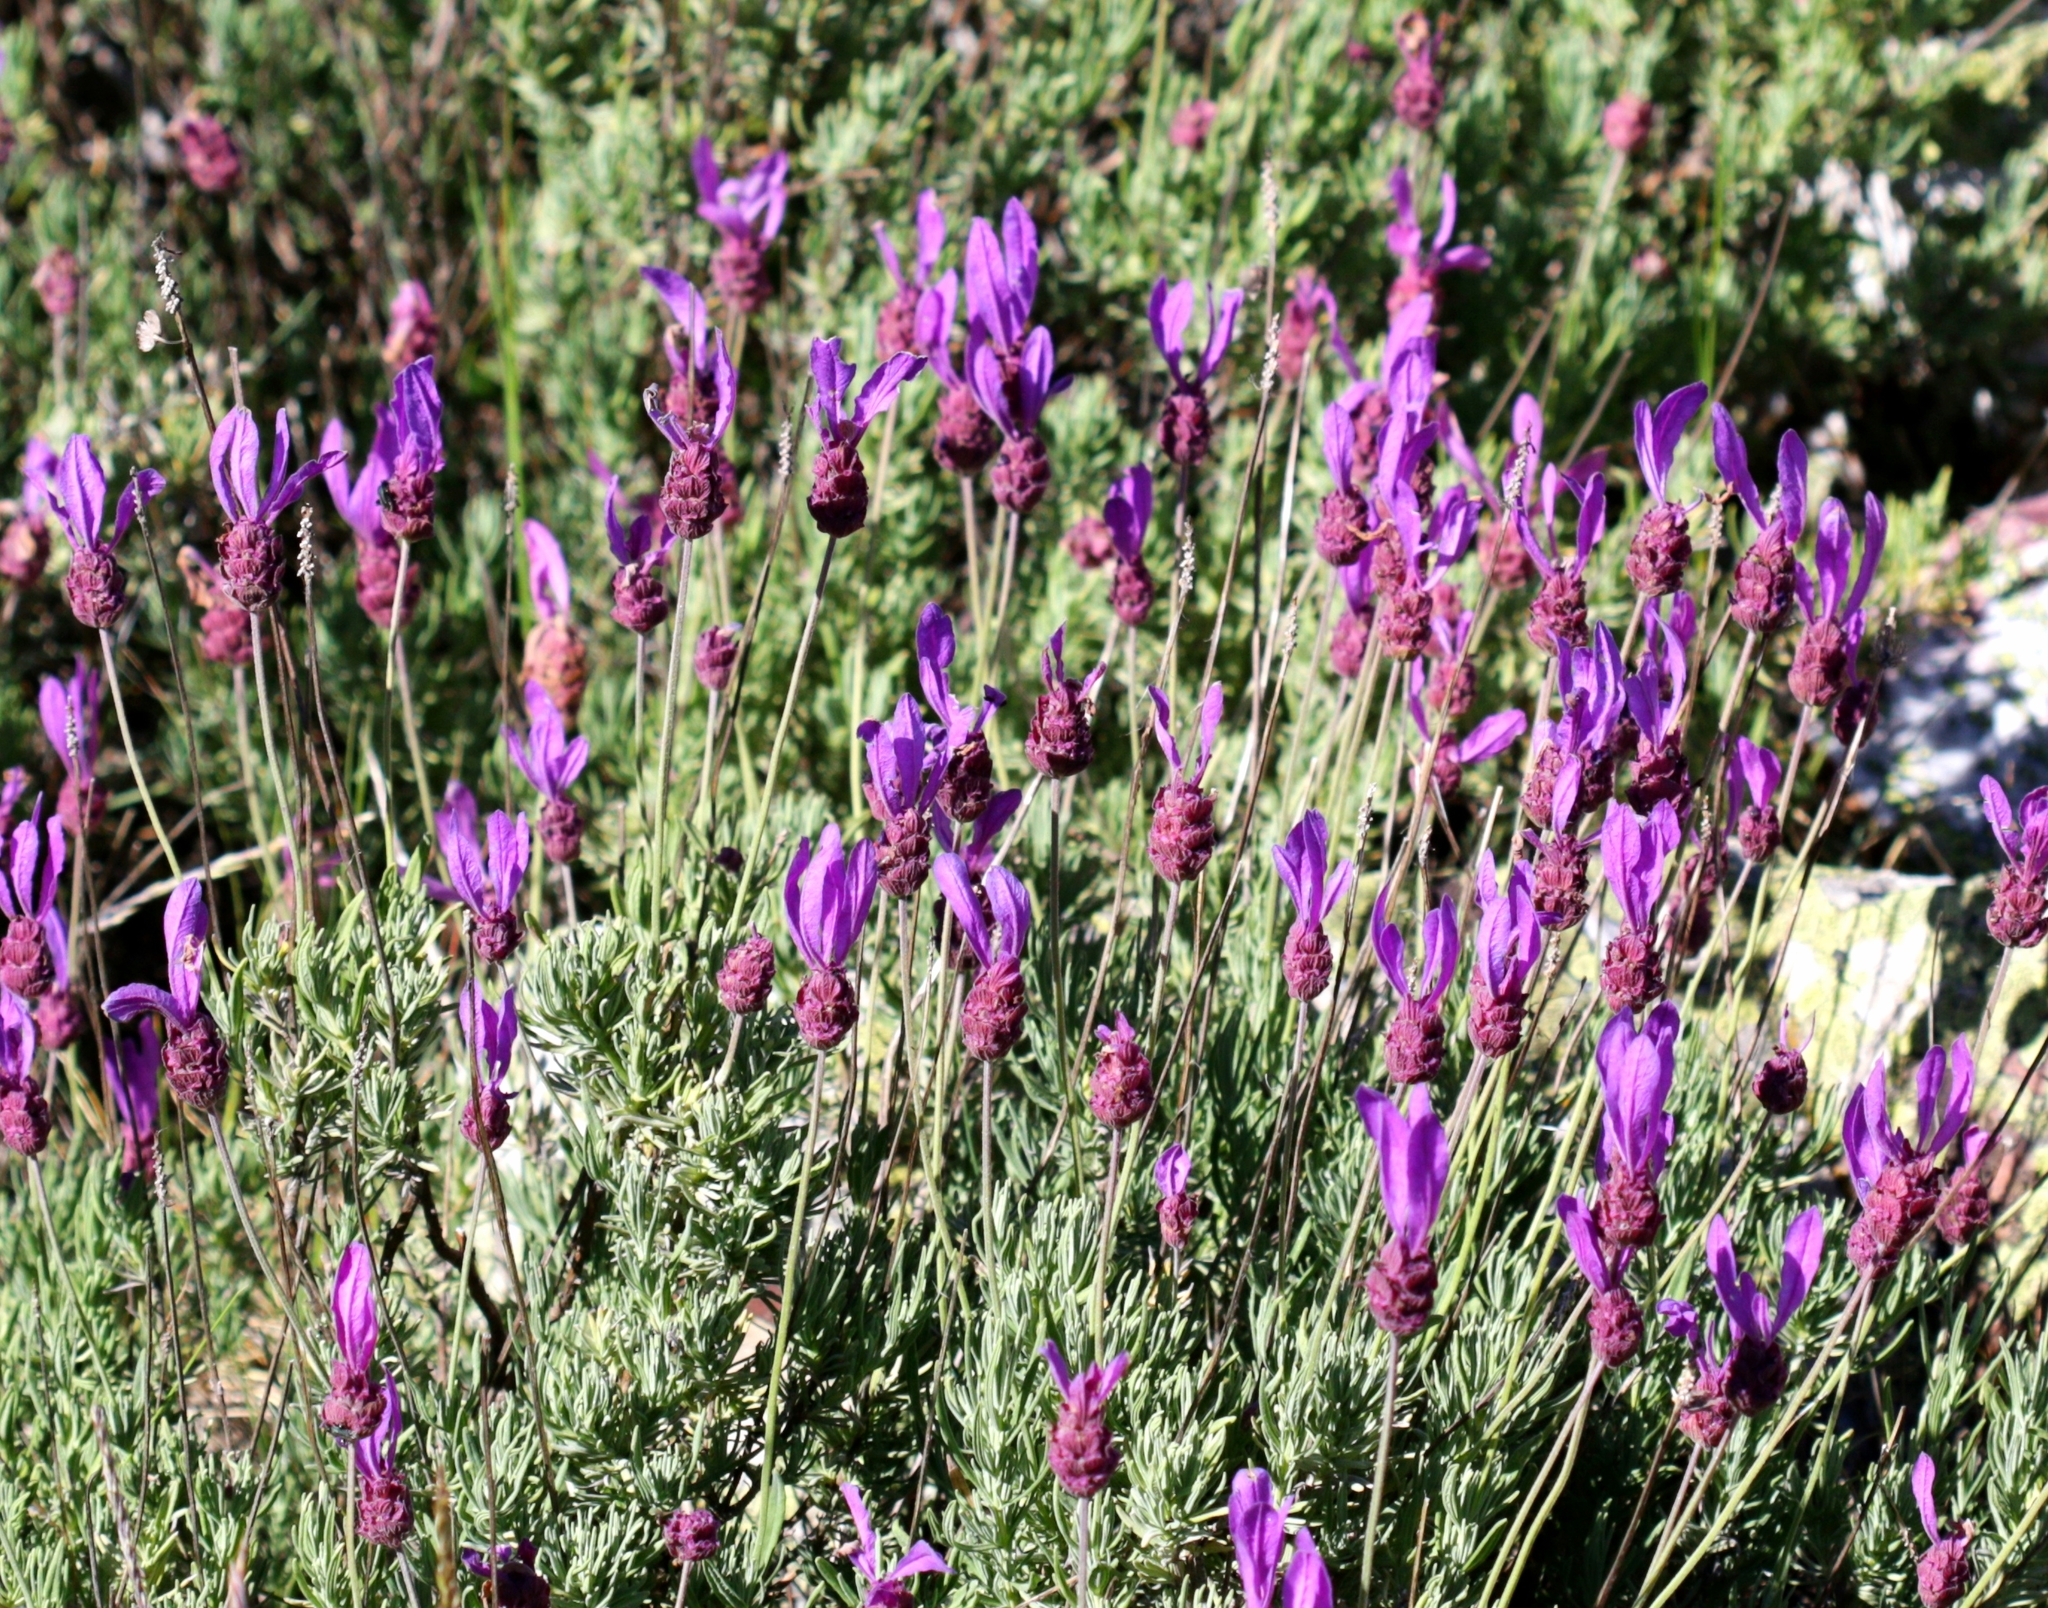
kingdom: Plantae
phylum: Tracheophyta
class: Magnoliopsida
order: Lamiales
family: Lamiaceae
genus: Lavandula
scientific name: Lavandula pedunculata
